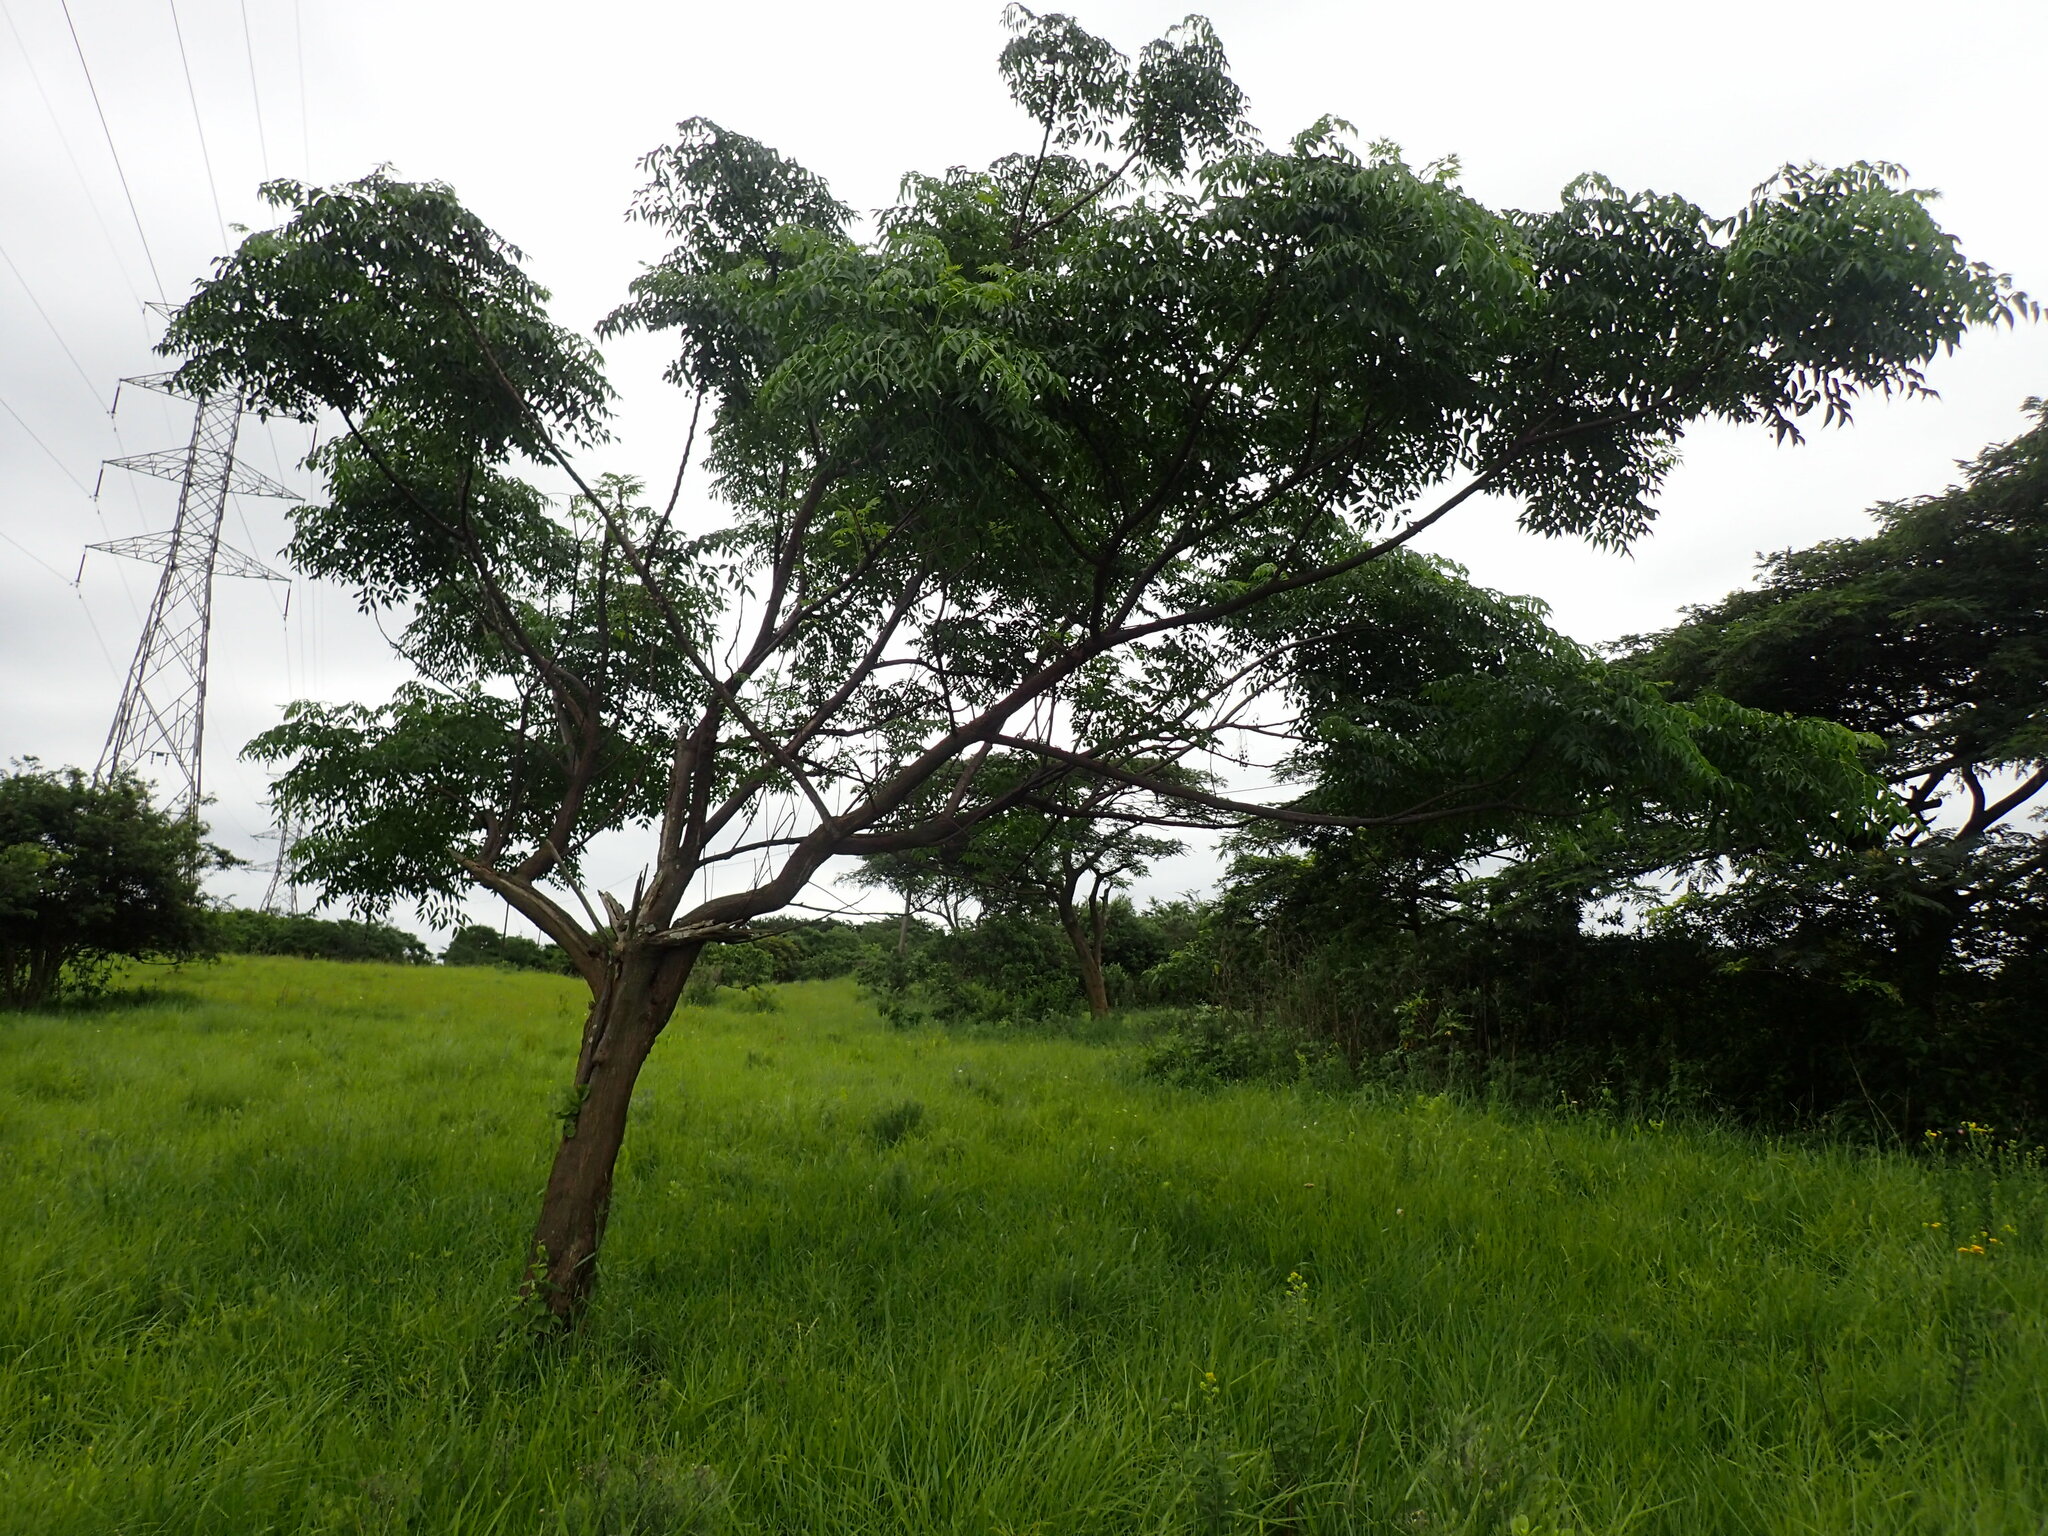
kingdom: Plantae
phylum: Tracheophyta
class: Magnoliopsida
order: Sapindales
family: Meliaceae
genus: Melia
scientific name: Melia azedarach
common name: Chinaberrytree
